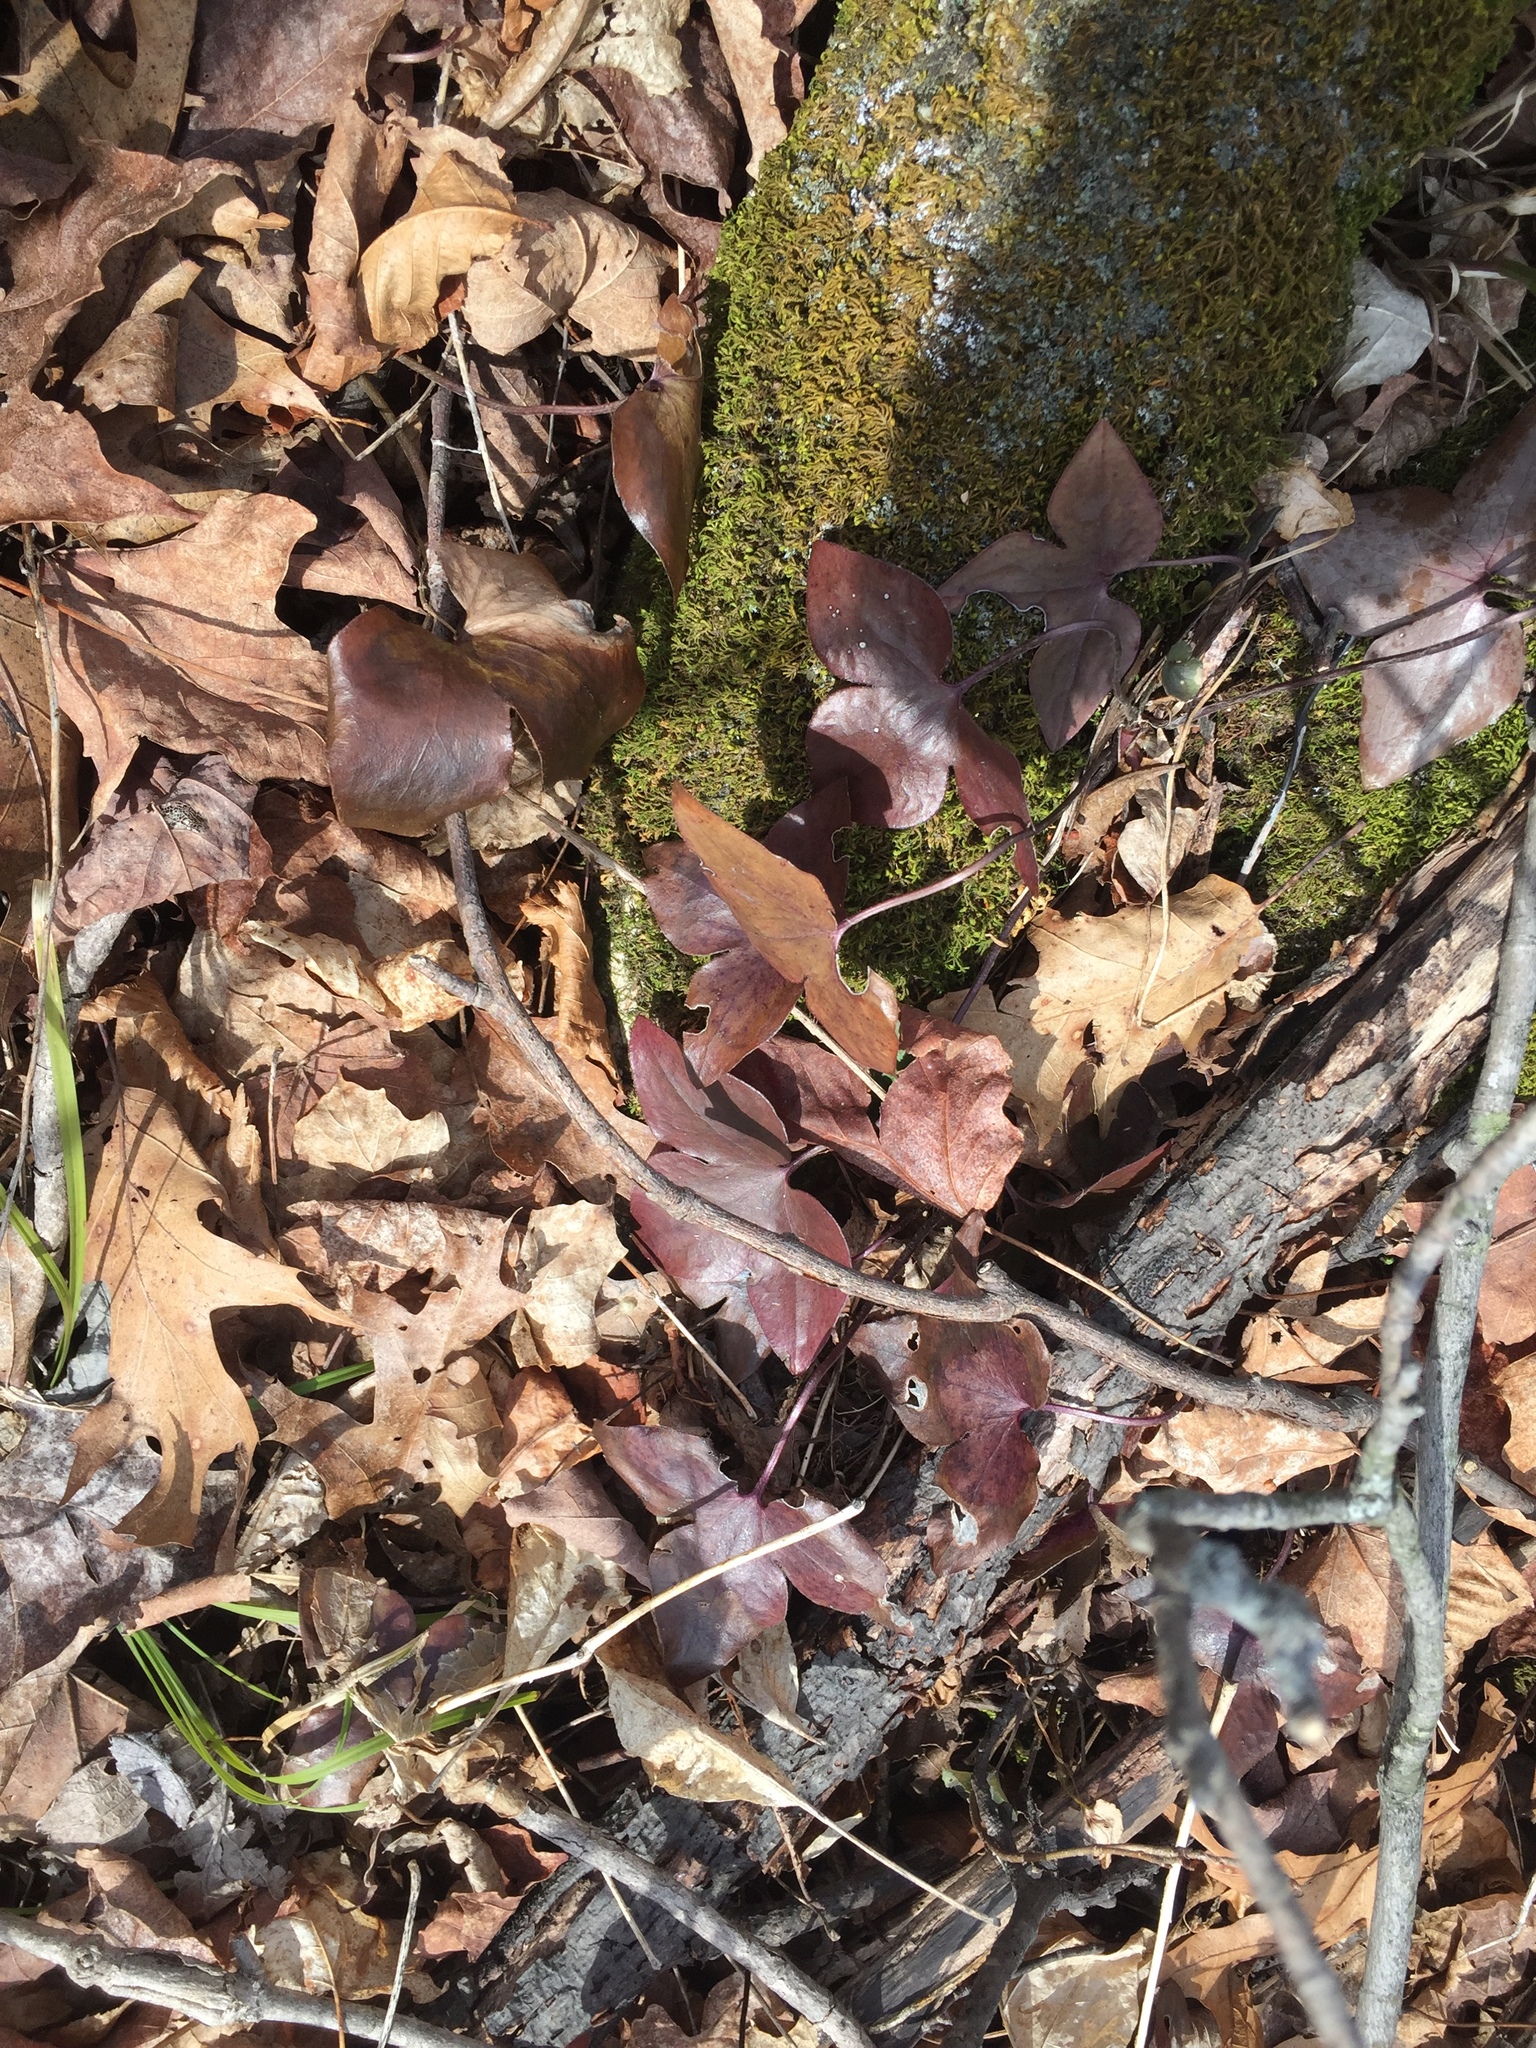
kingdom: Plantae
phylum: Tracheophyta
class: Magnoliopsida
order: Ranunculales
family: Ranunculaceae
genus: Hepatica
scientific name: Hepatica acutiloba
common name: Sharp-lobed hepatica
